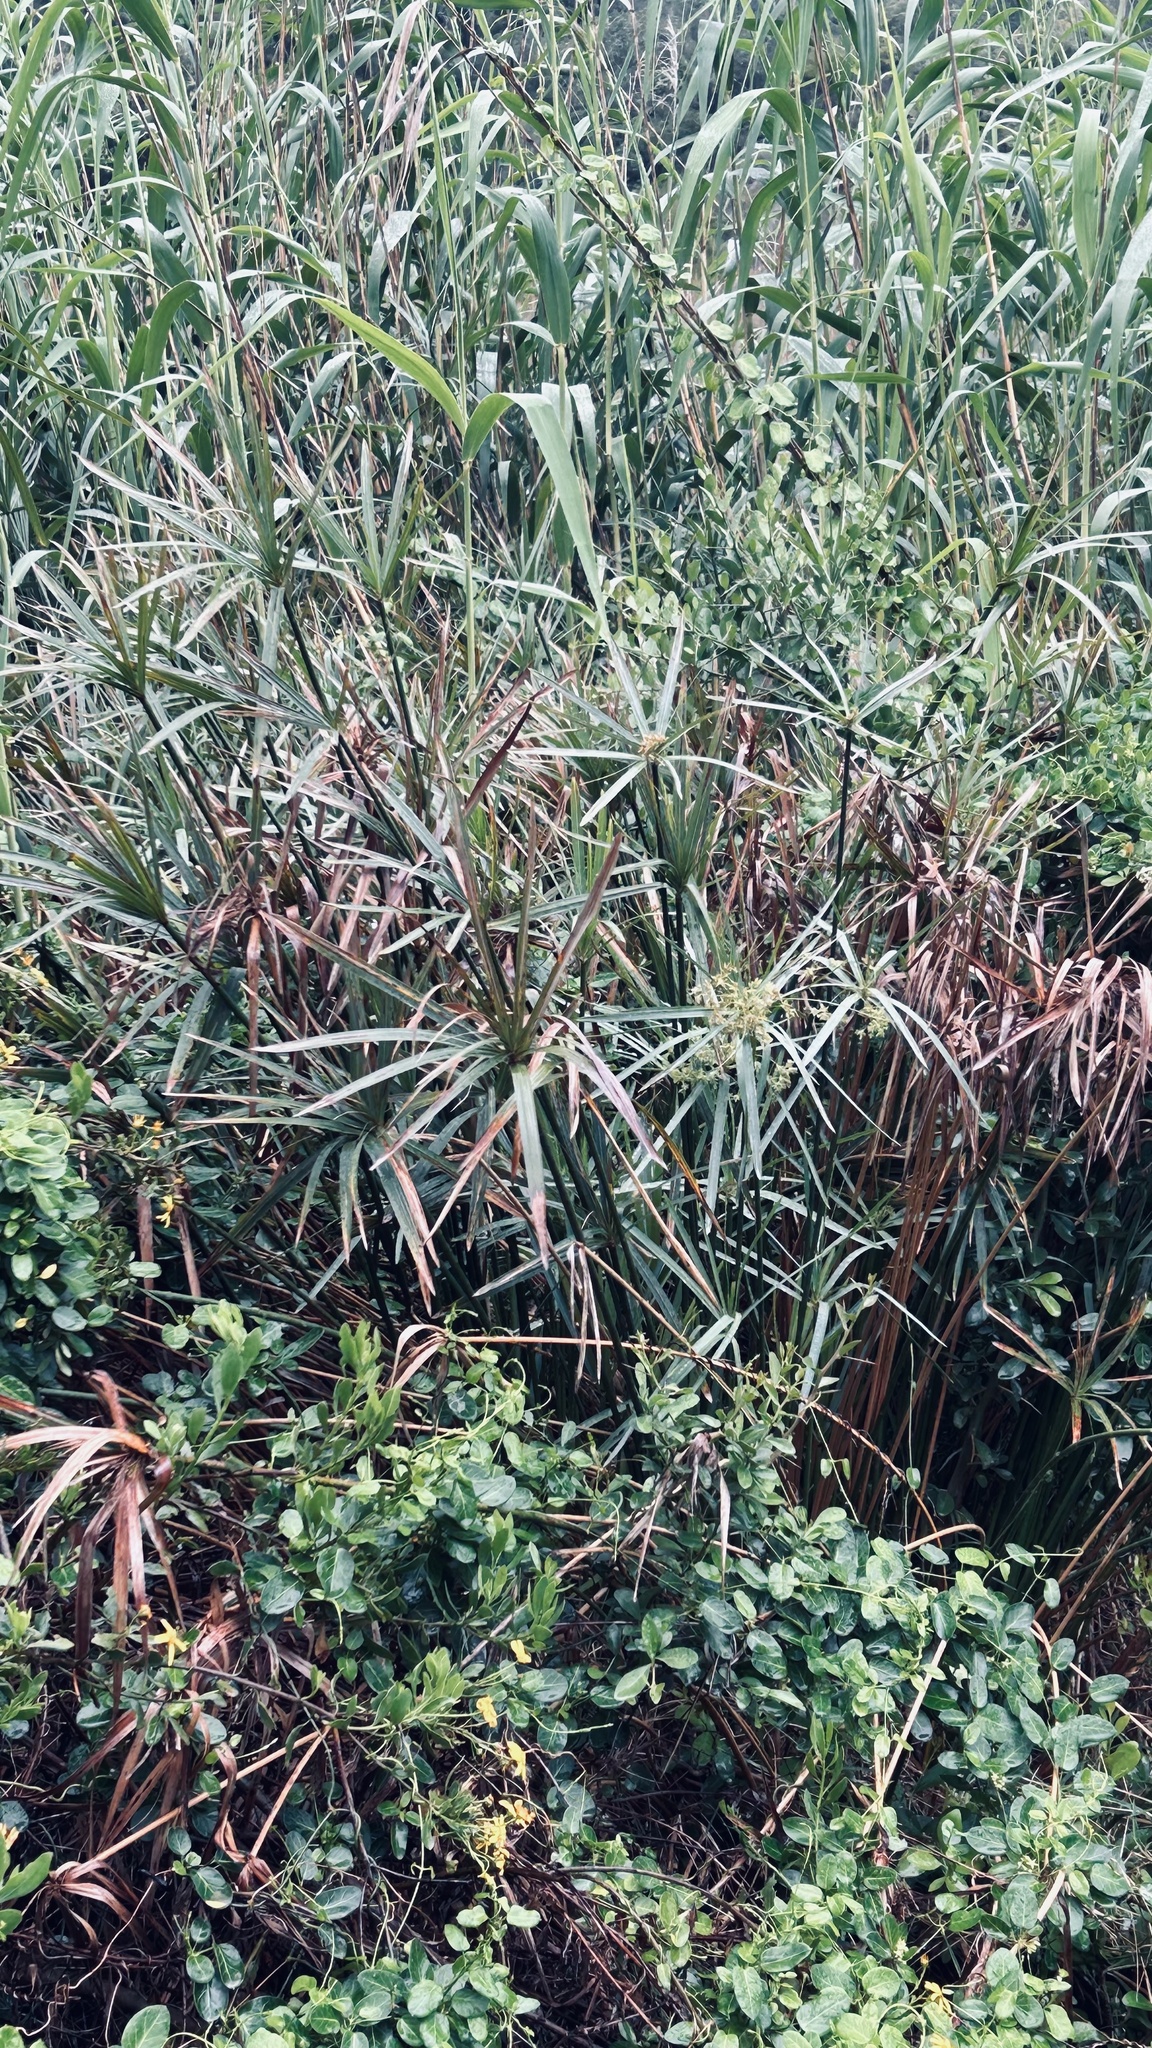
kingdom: Plantae
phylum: Tracheophyta
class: Liliopsida
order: Poales
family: Cyperaceae
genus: Cyperus
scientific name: Cyperus textilis
